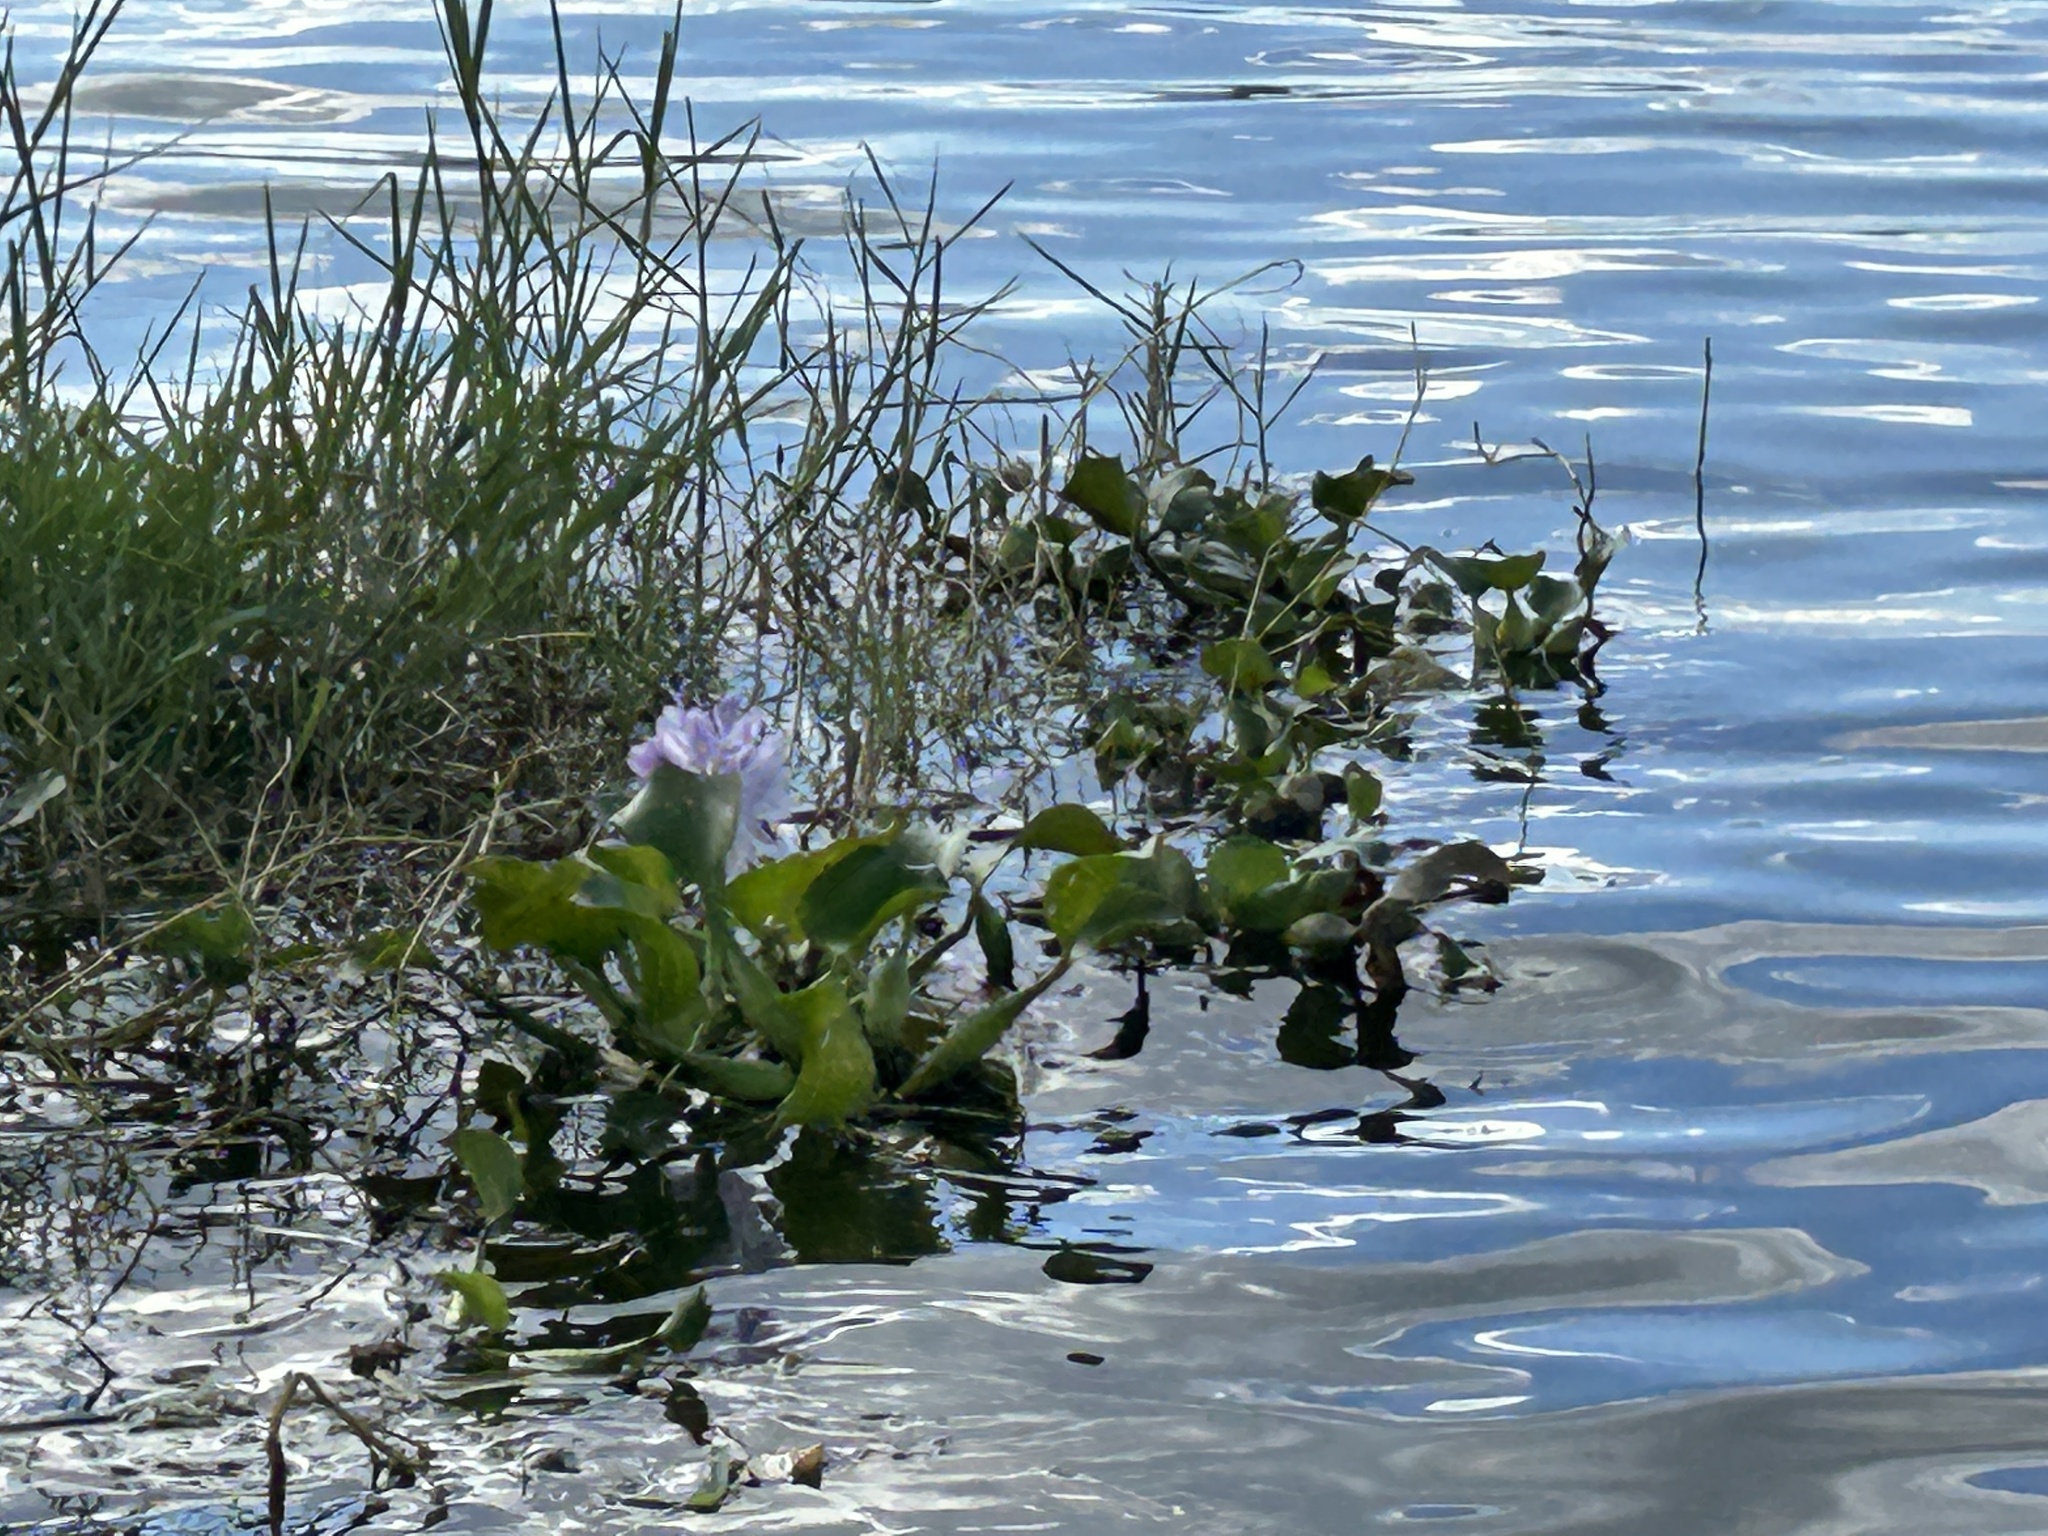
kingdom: Plantae
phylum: Tracheophyta
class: Liliopsida
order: Commelinales
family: Pontederiaceae
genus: Pontederia
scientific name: Pontederia crassipes
